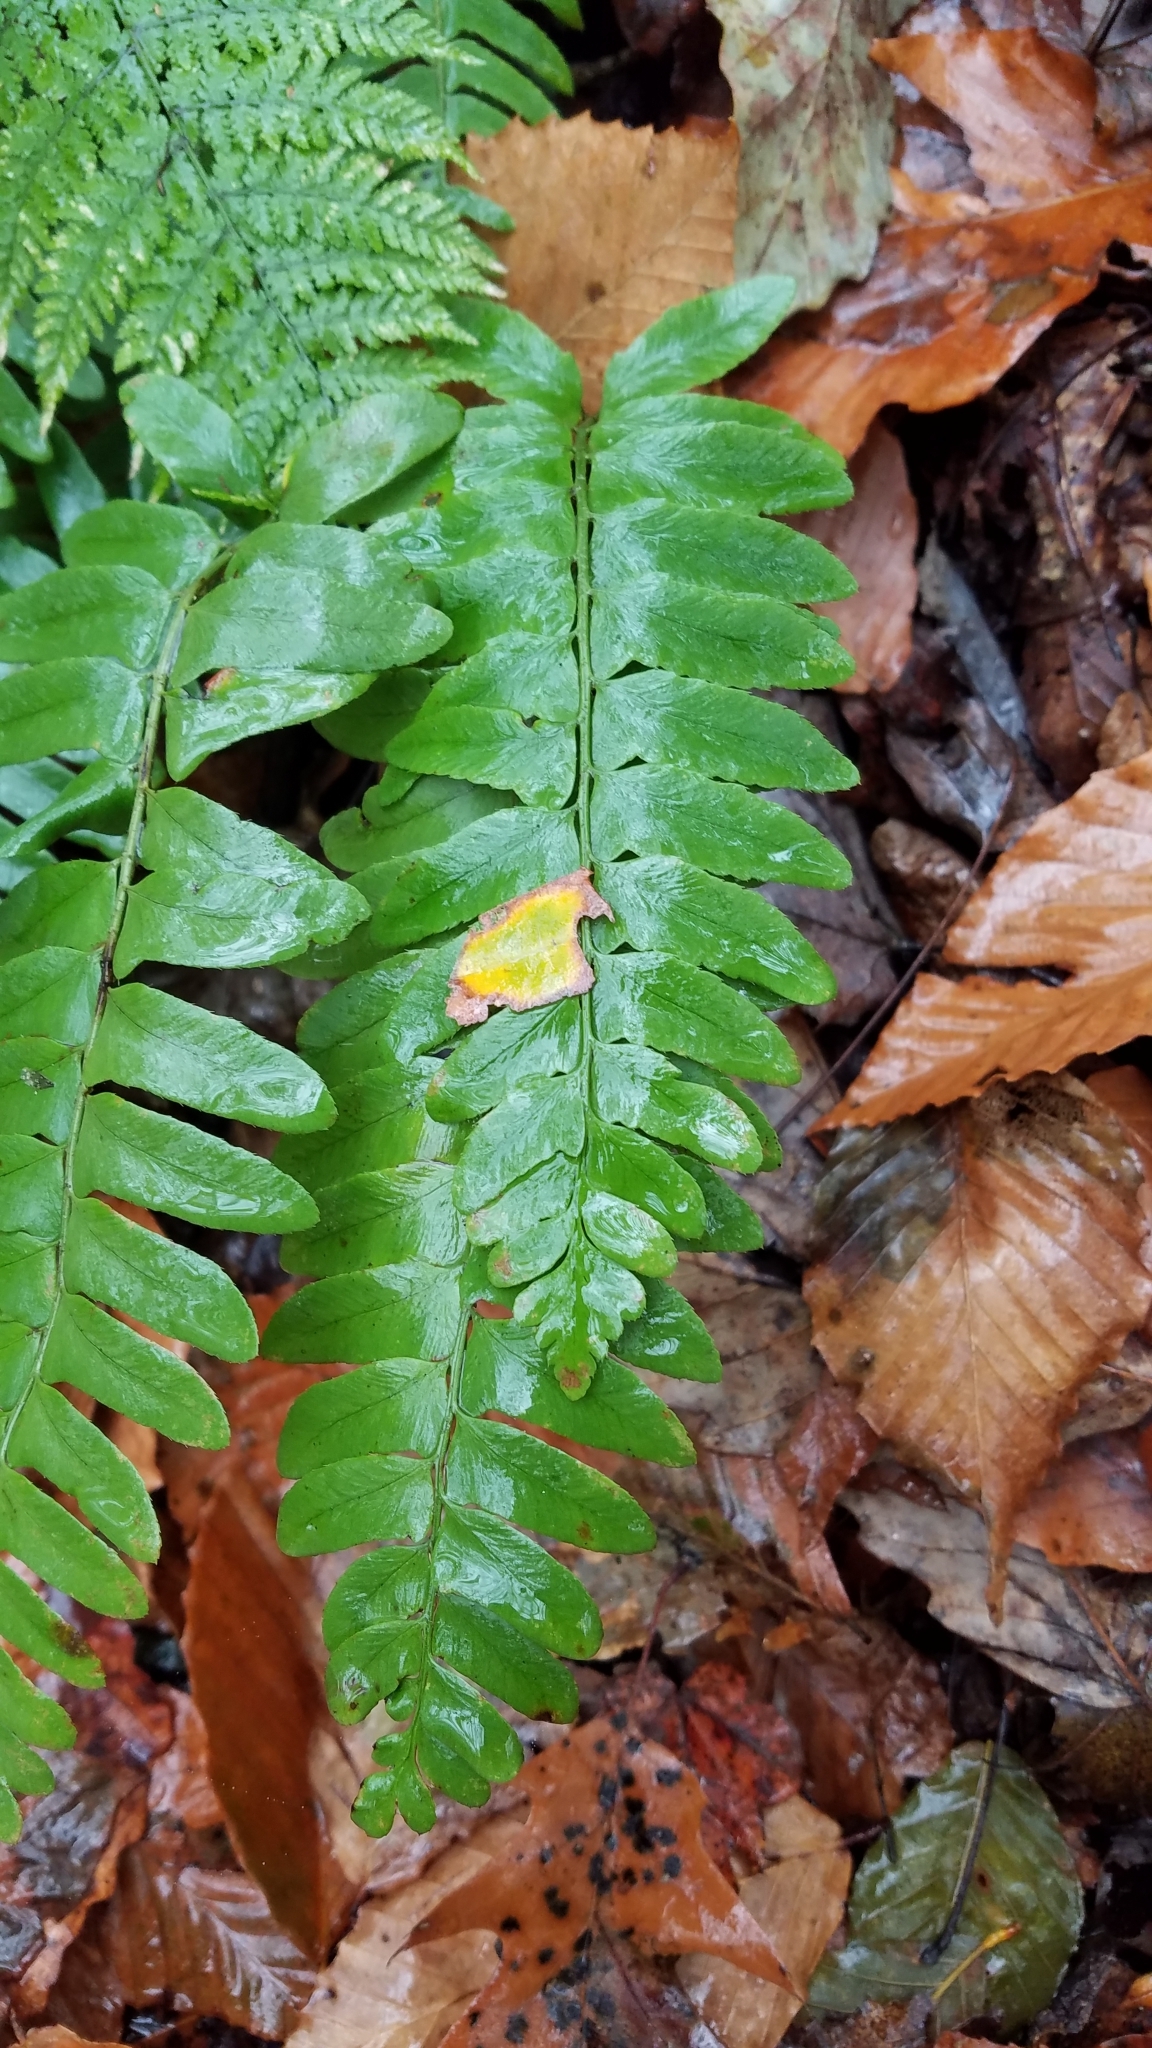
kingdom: Plantae
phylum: Tracheophyta
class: Polypodiopsida
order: Polypodiales
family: Dryopteridaceae
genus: Polystichum
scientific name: Polystichum acrostichoides
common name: Christmas fern
